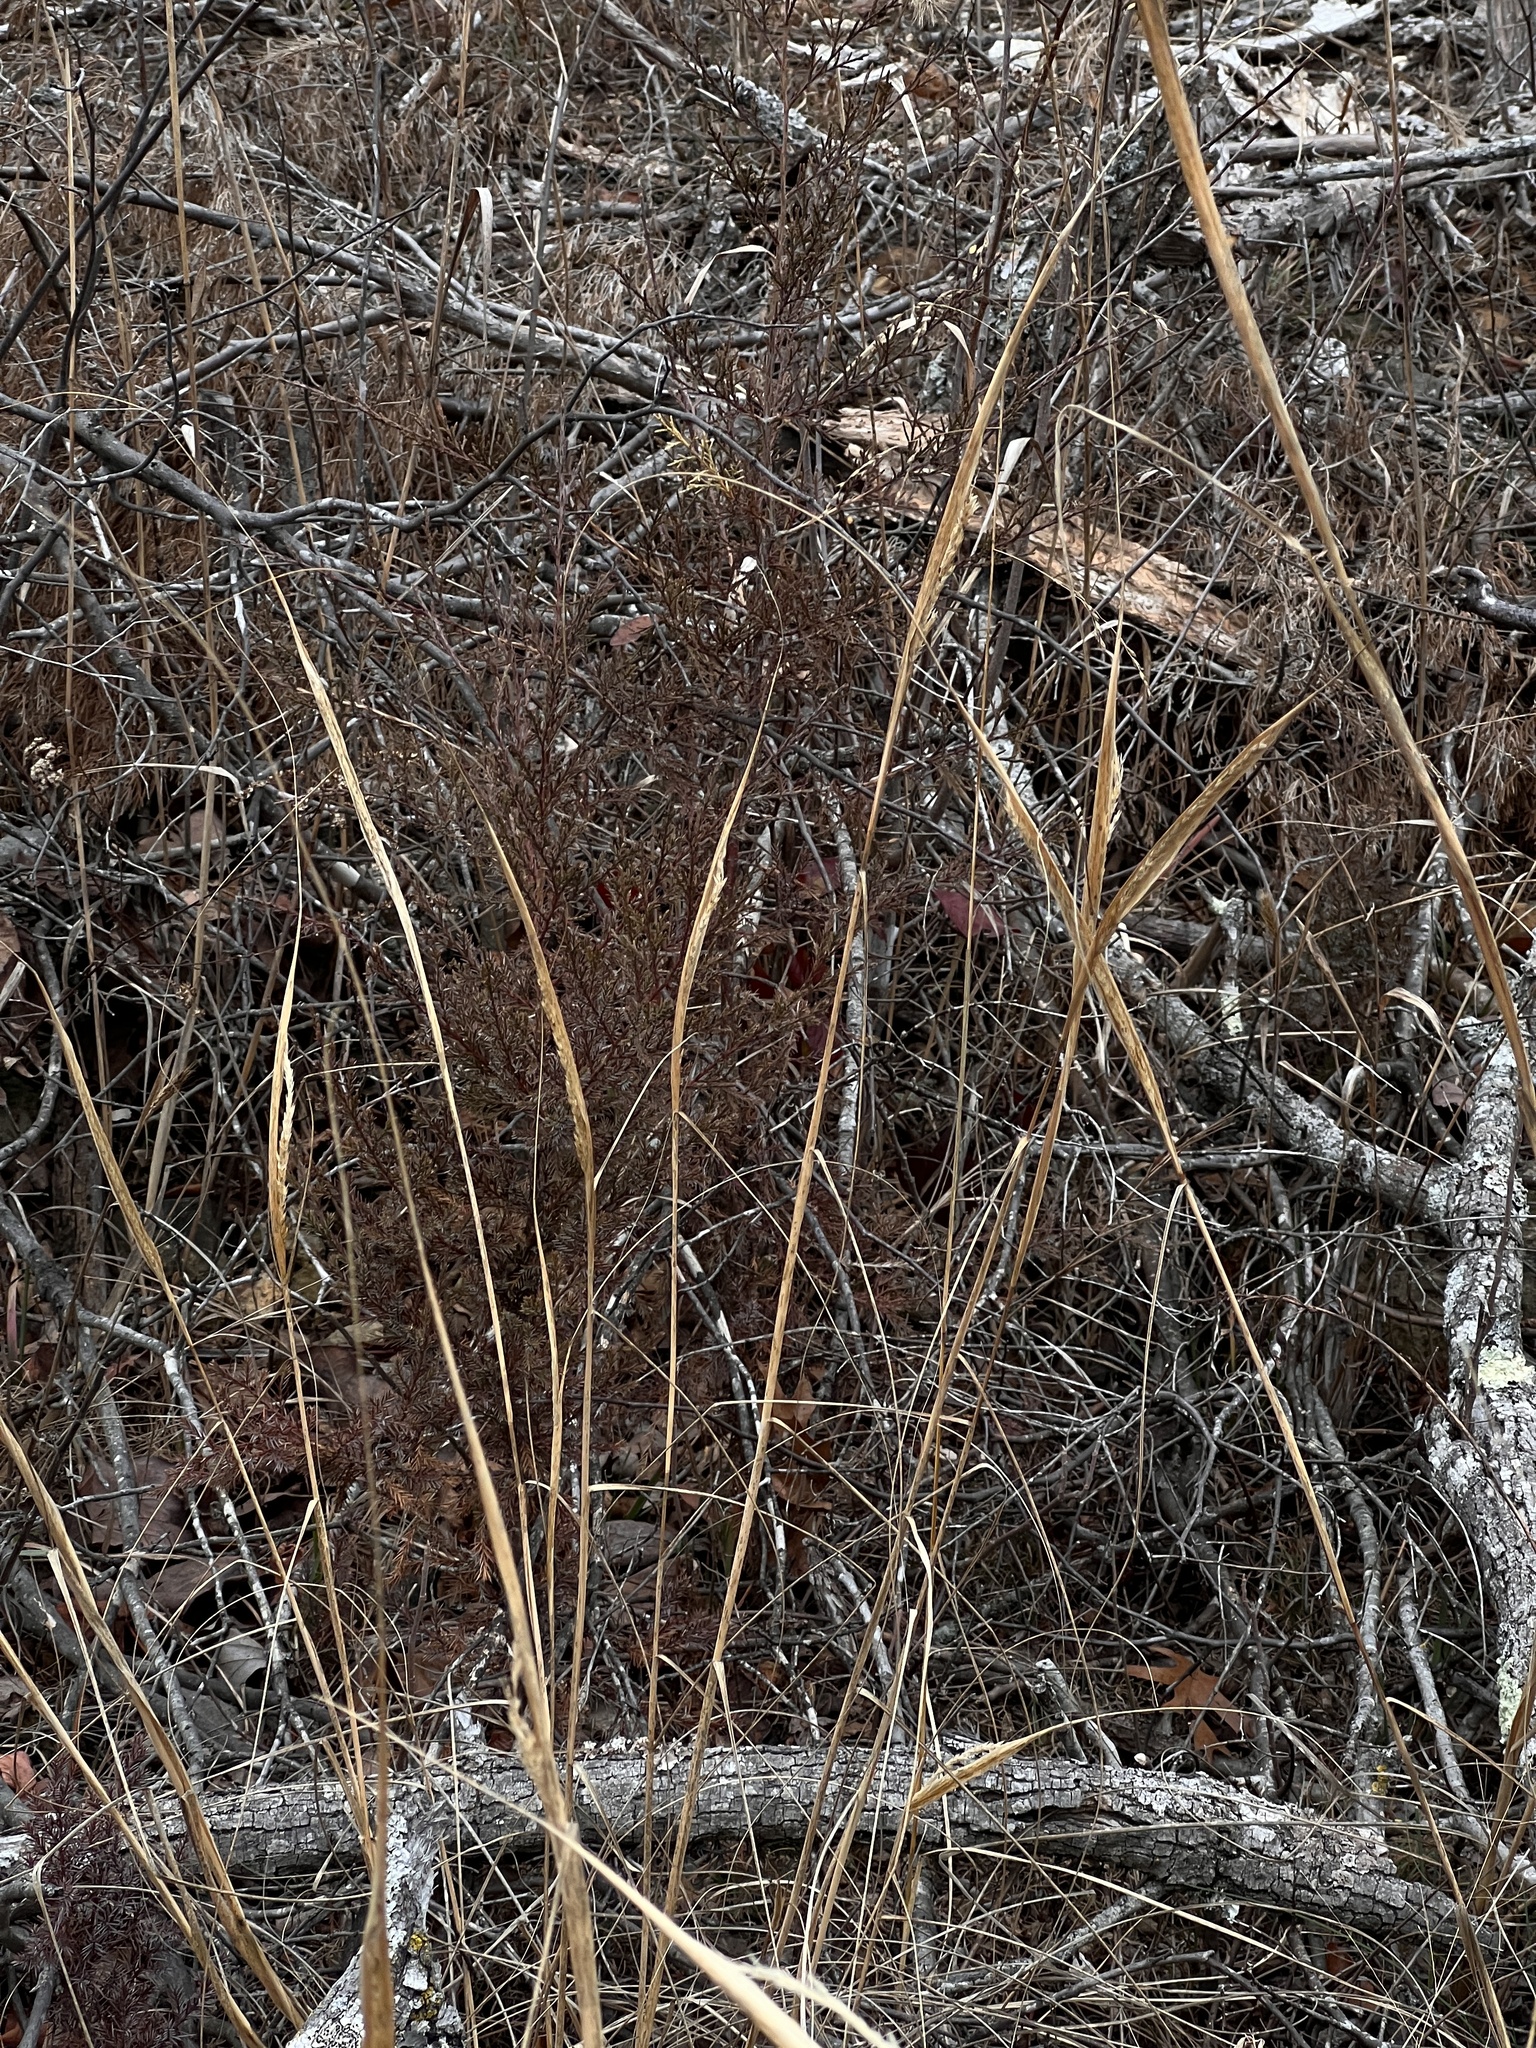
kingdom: Plantae
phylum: Tracheophyta
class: Liliopsida
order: Poales
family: Poaceae
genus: Sporobolus
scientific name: Sporobolus compositus
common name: Rough dropseed
